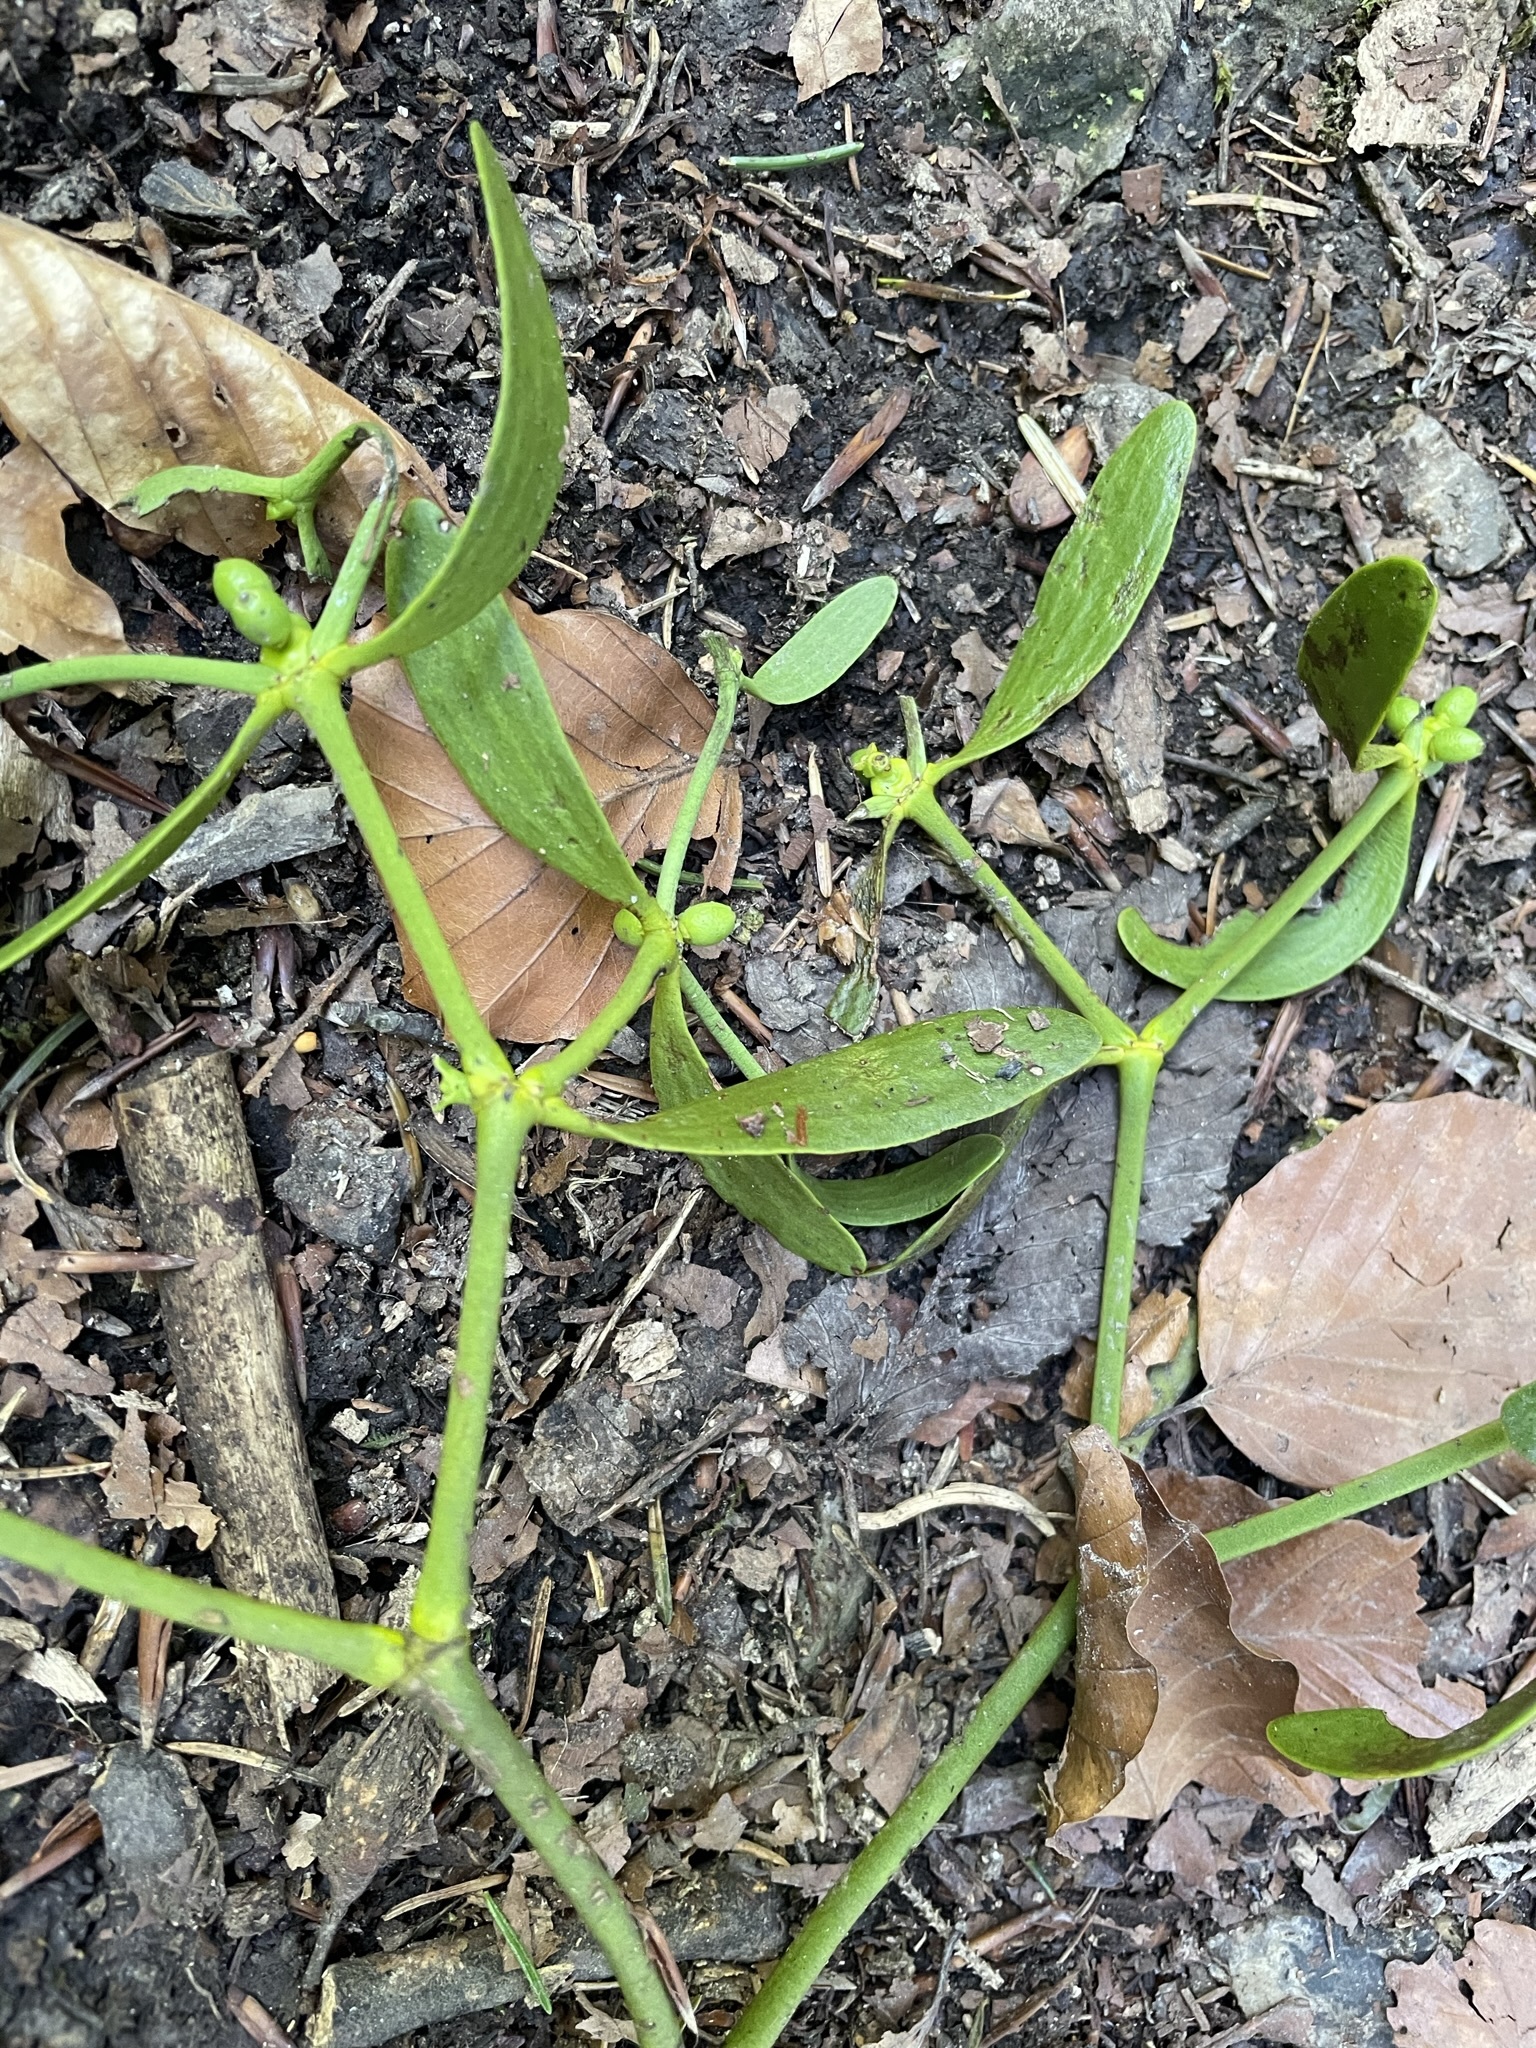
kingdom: Plantae
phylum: Tracheophyta
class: Magnoliopsida
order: Santalales
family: Viscaceae
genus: Viscum
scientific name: Viscum album
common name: Mistletoe
